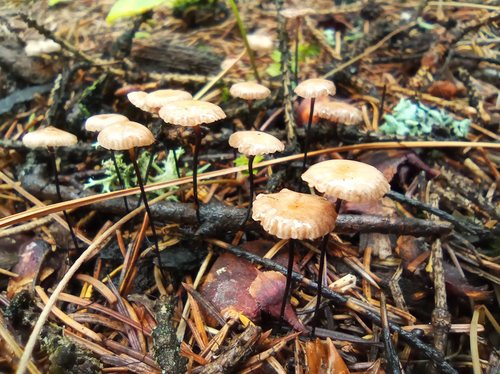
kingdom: Fungi
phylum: Basidiomycota
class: Agaricomycetes
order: Agaricales
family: Omphalotaceae
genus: Gymnopus
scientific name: Gymnopus androsaceus
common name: Horse-hair fungus
